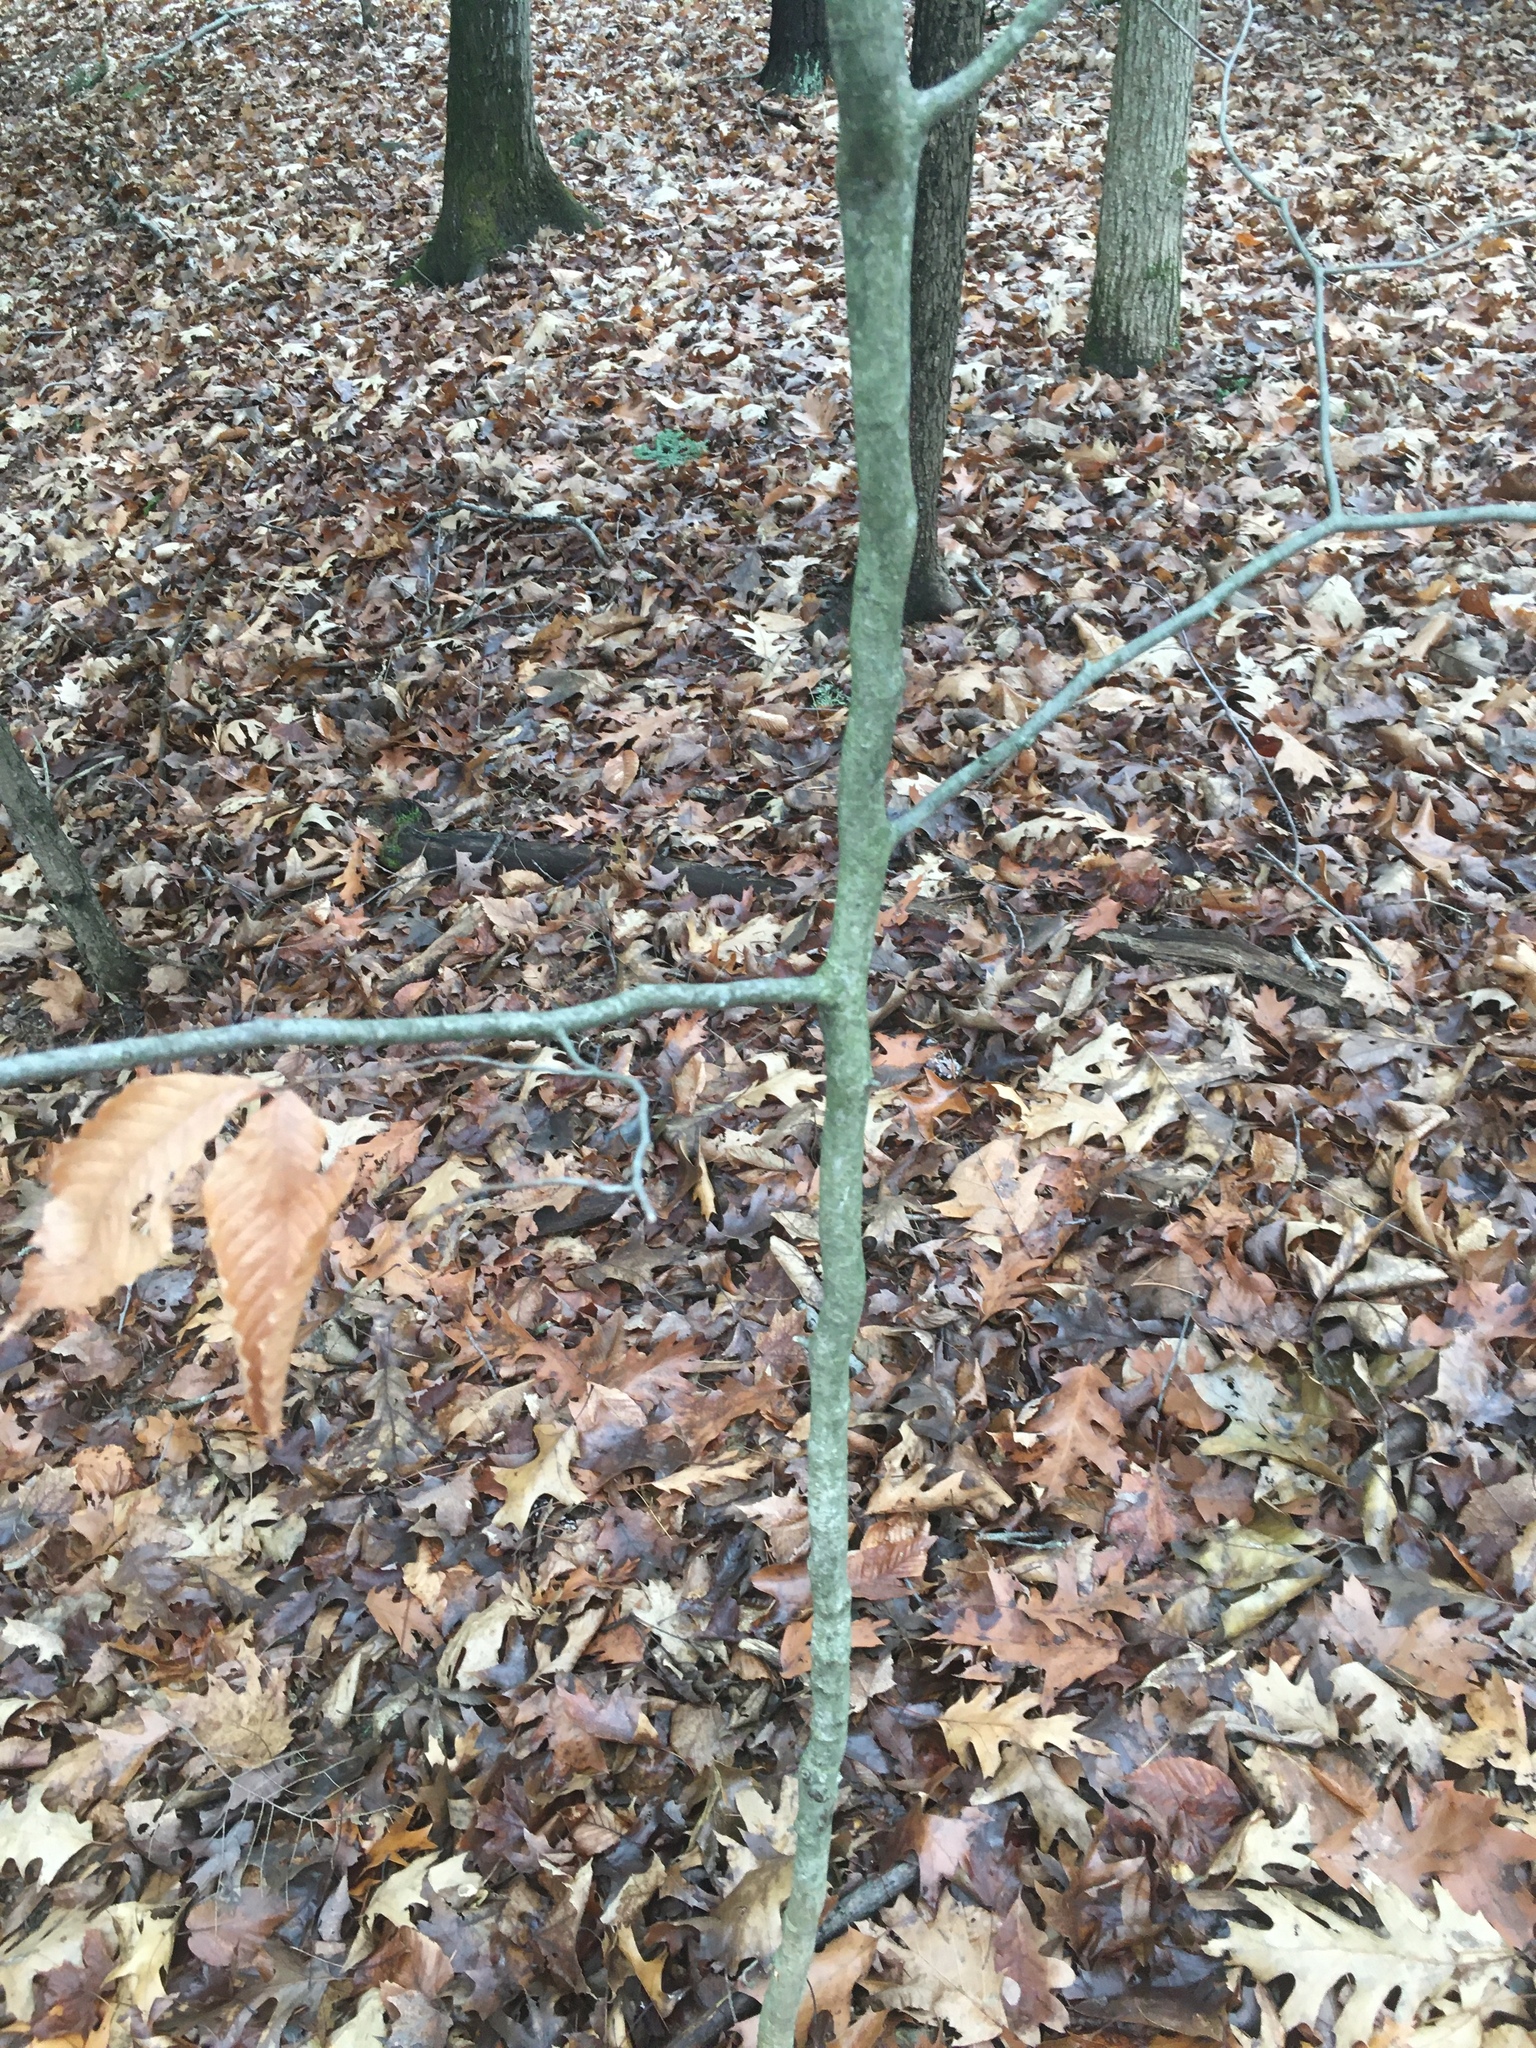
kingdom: Plantae
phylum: Tracheophyta
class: Magnoliopsida
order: Fagales
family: Fagaceae
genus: Fagus
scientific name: Fagus grandifolia
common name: American beech
